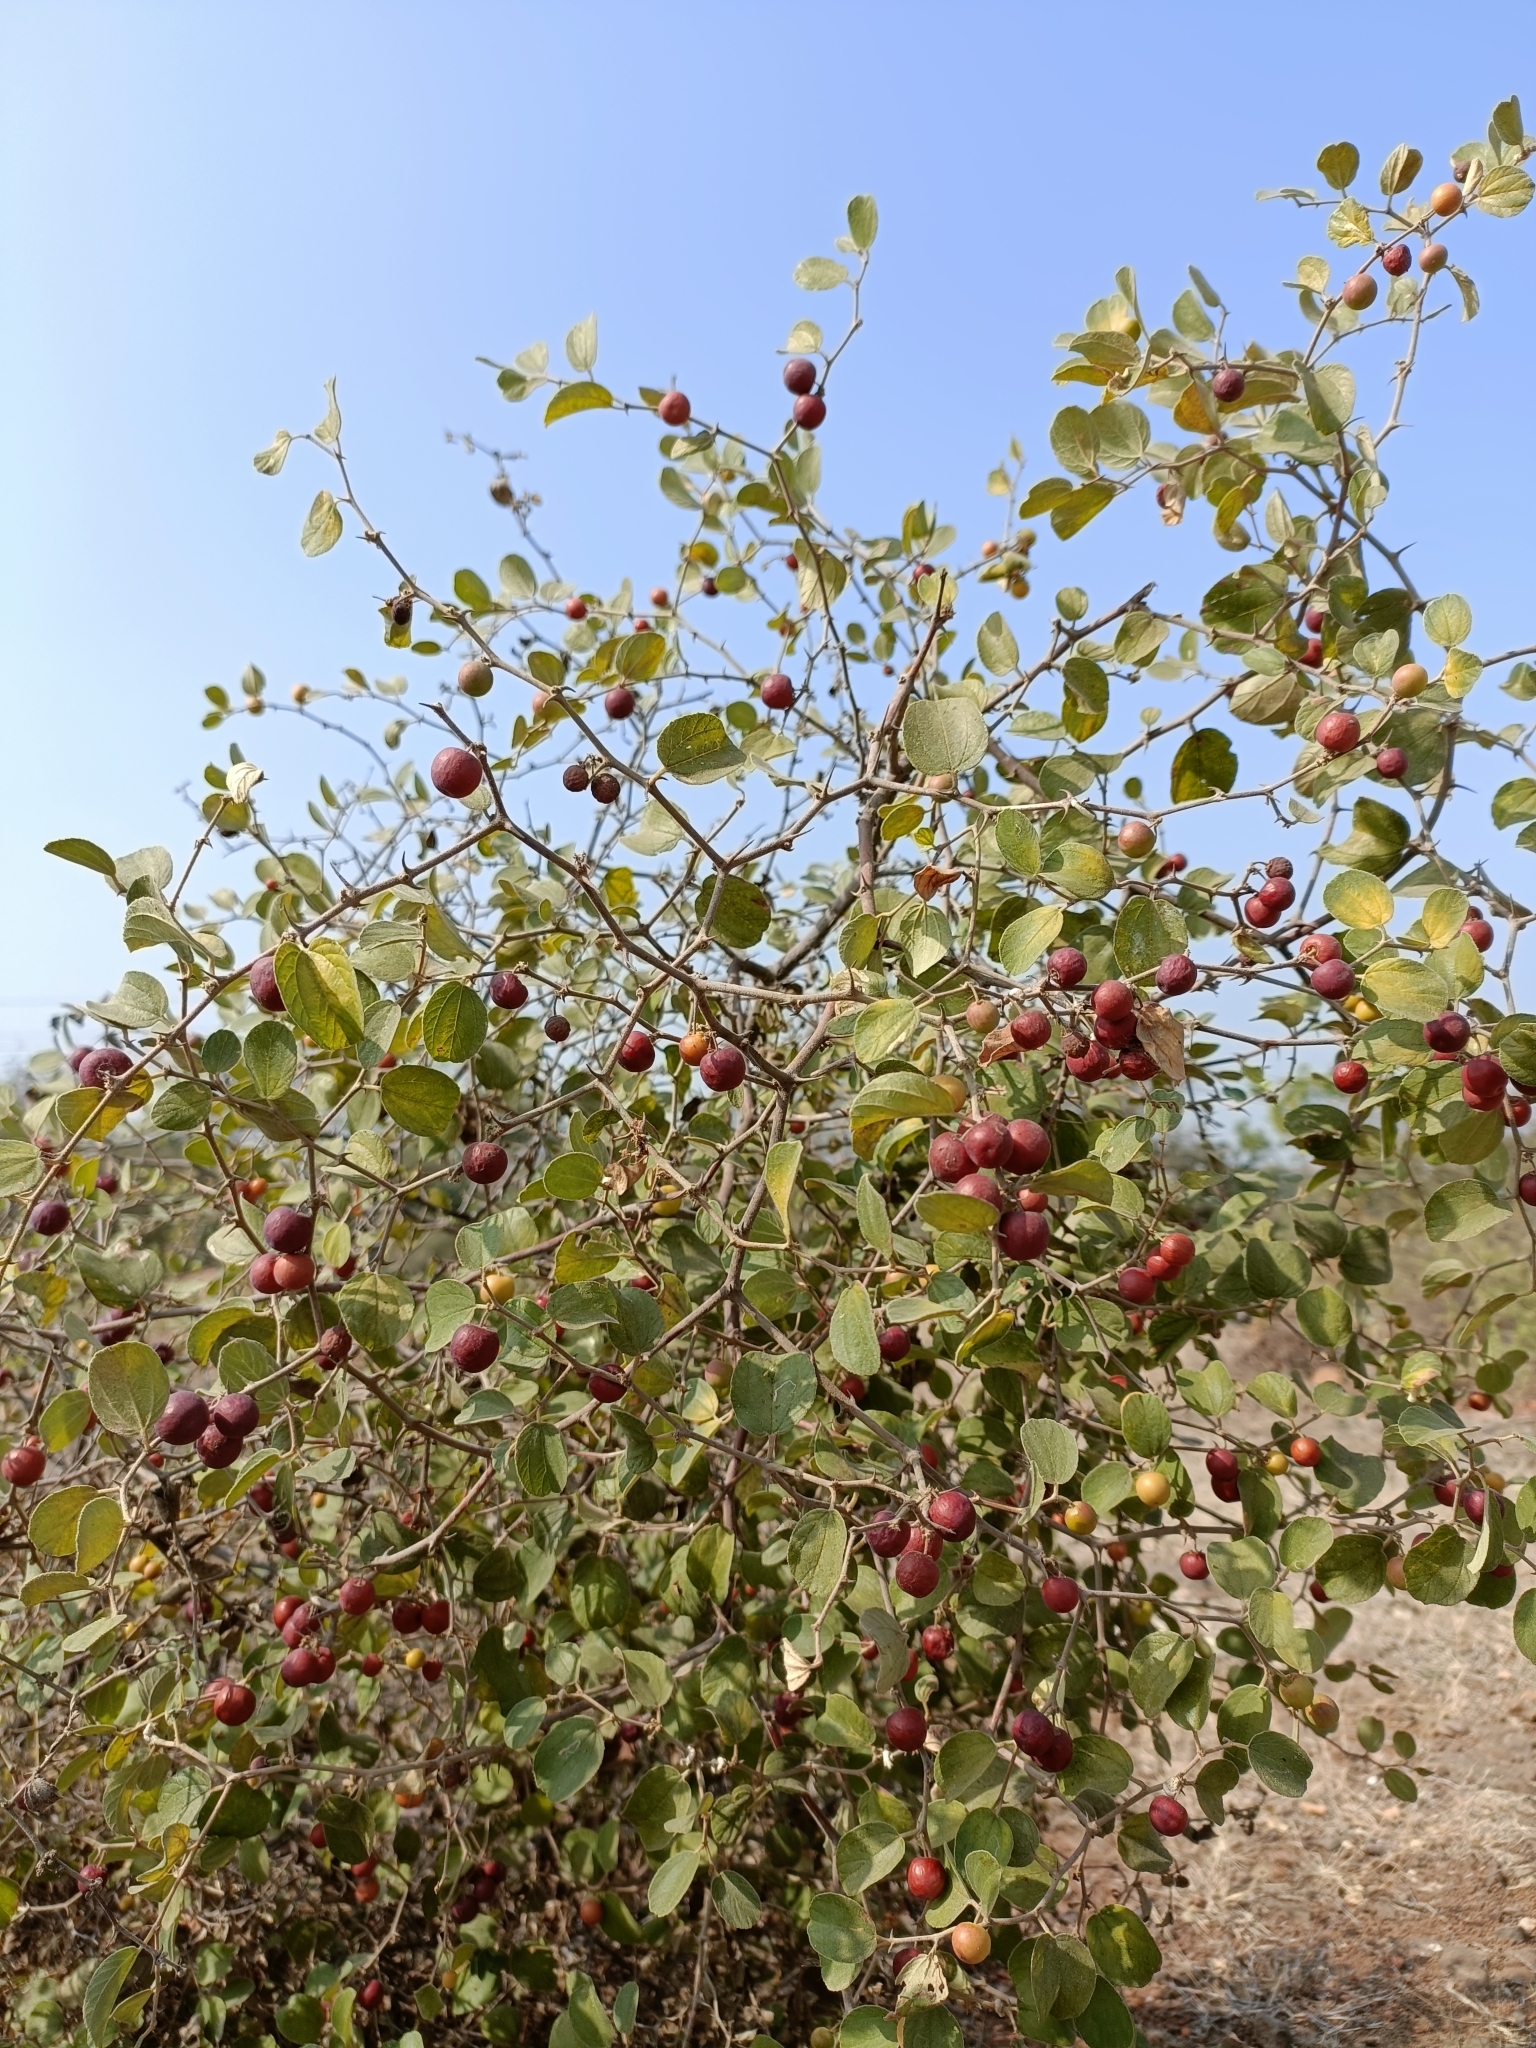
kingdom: Plantae
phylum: Tracheophyta
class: Magnoliopsida
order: Rosales
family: Rhamnaceae
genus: Ziziphus
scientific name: Ziziphus nummularia
